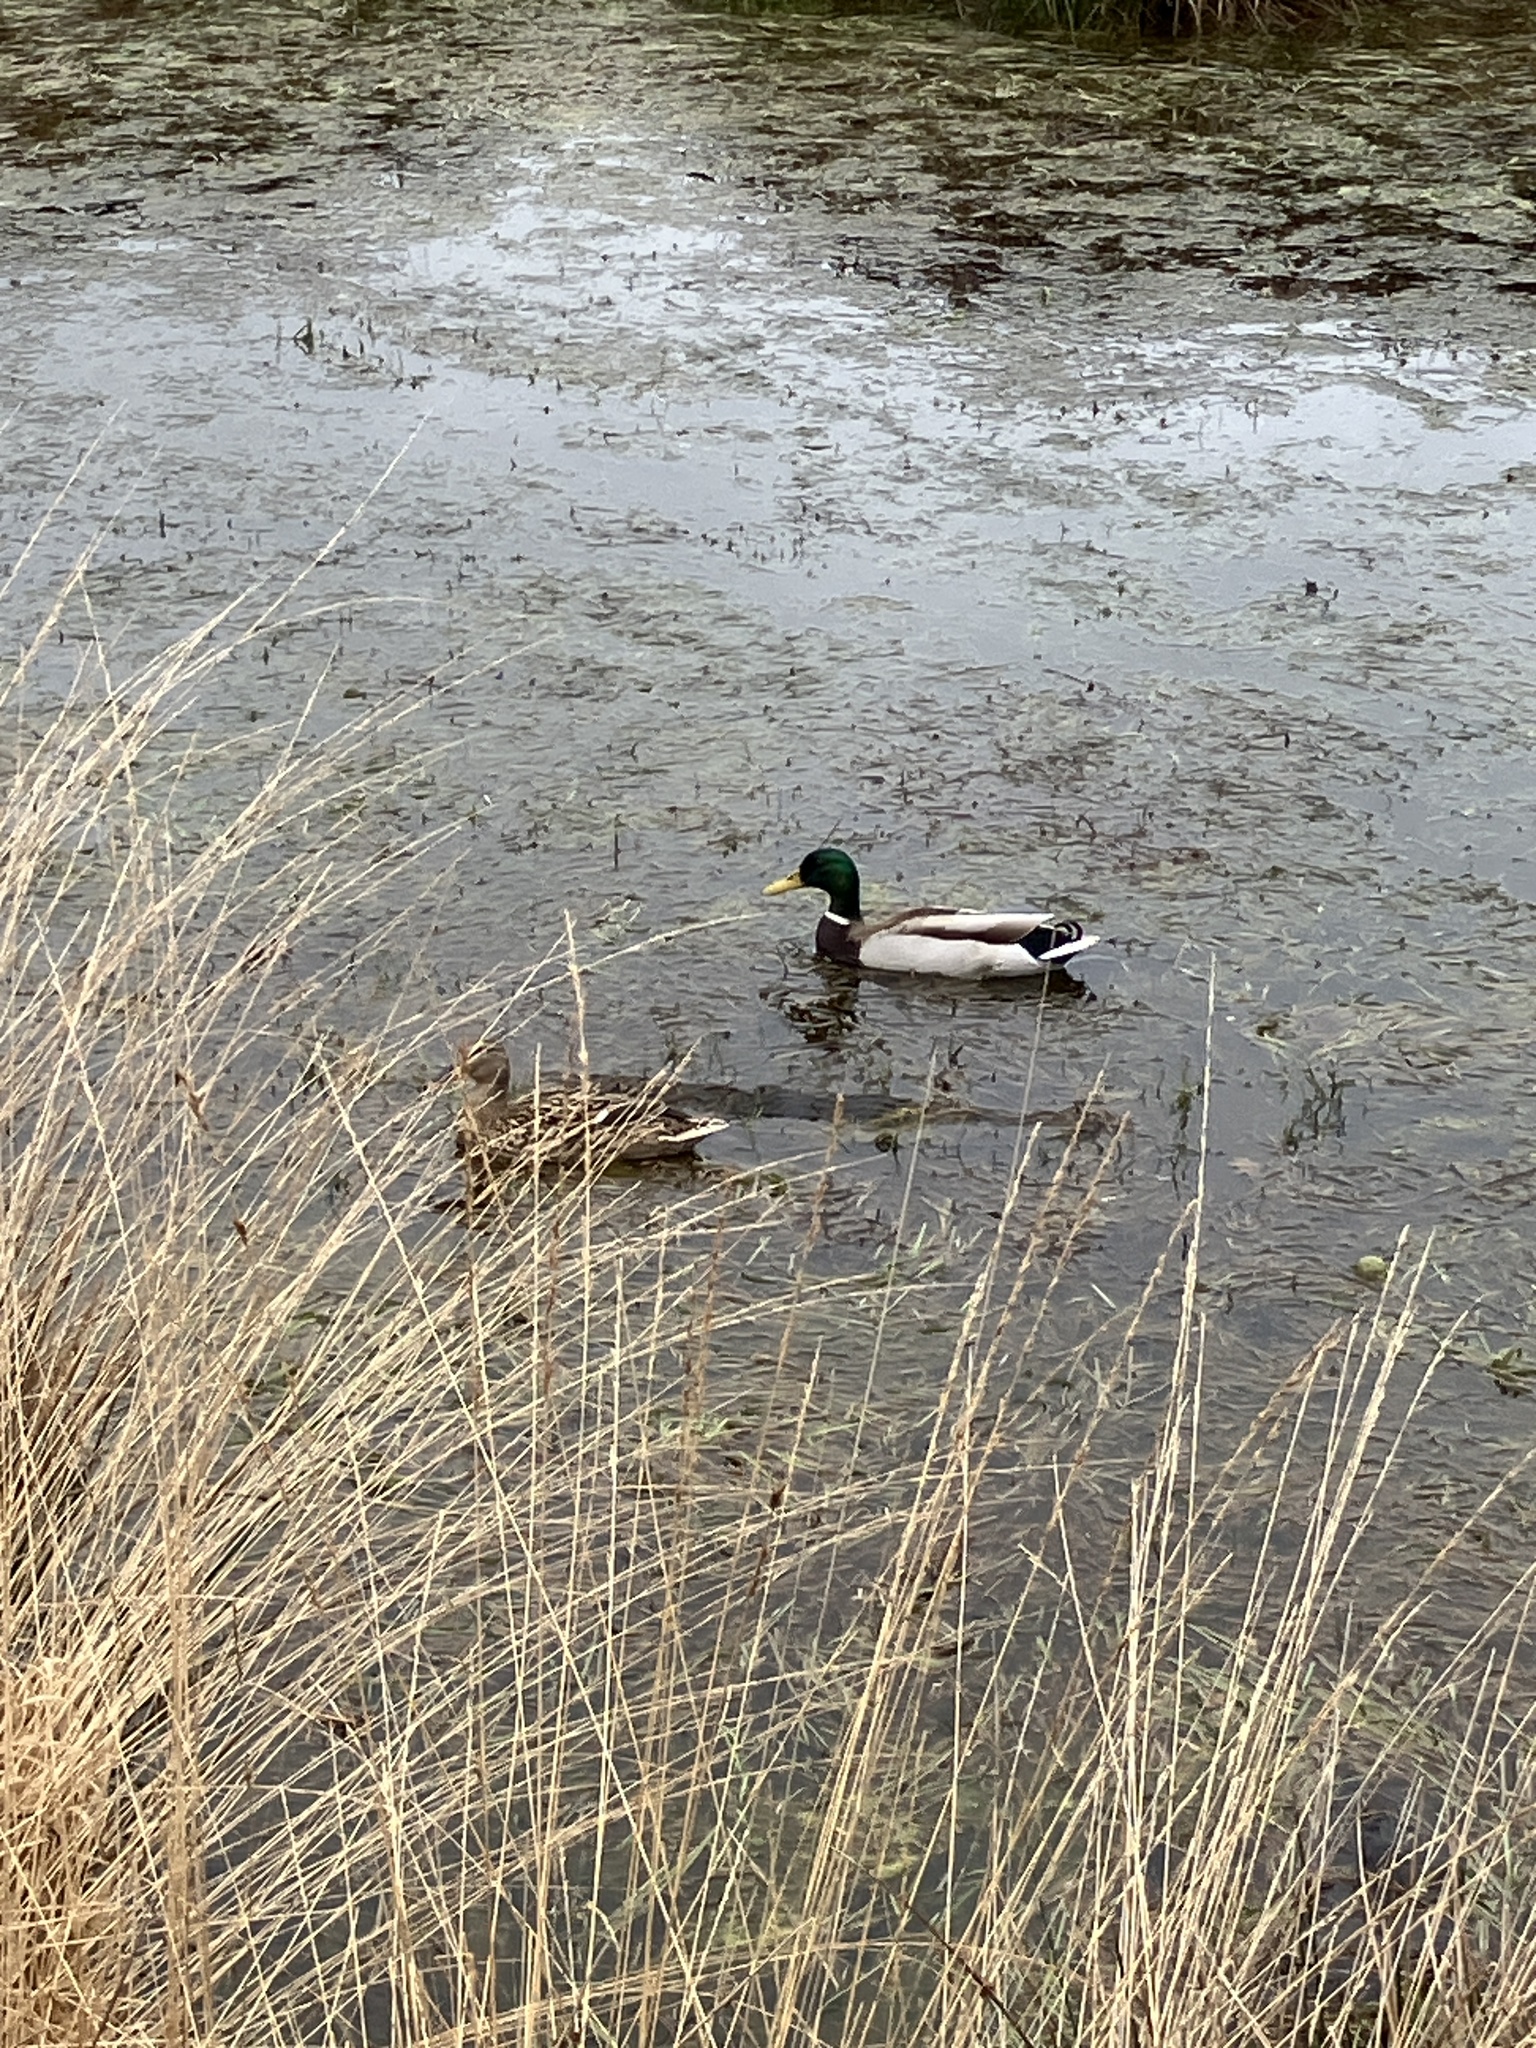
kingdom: Animalia
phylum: Chordata
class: Aves
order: Anseriformes
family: Anatidae
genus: Anas
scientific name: Anas platyrhynchos
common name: Mallard
